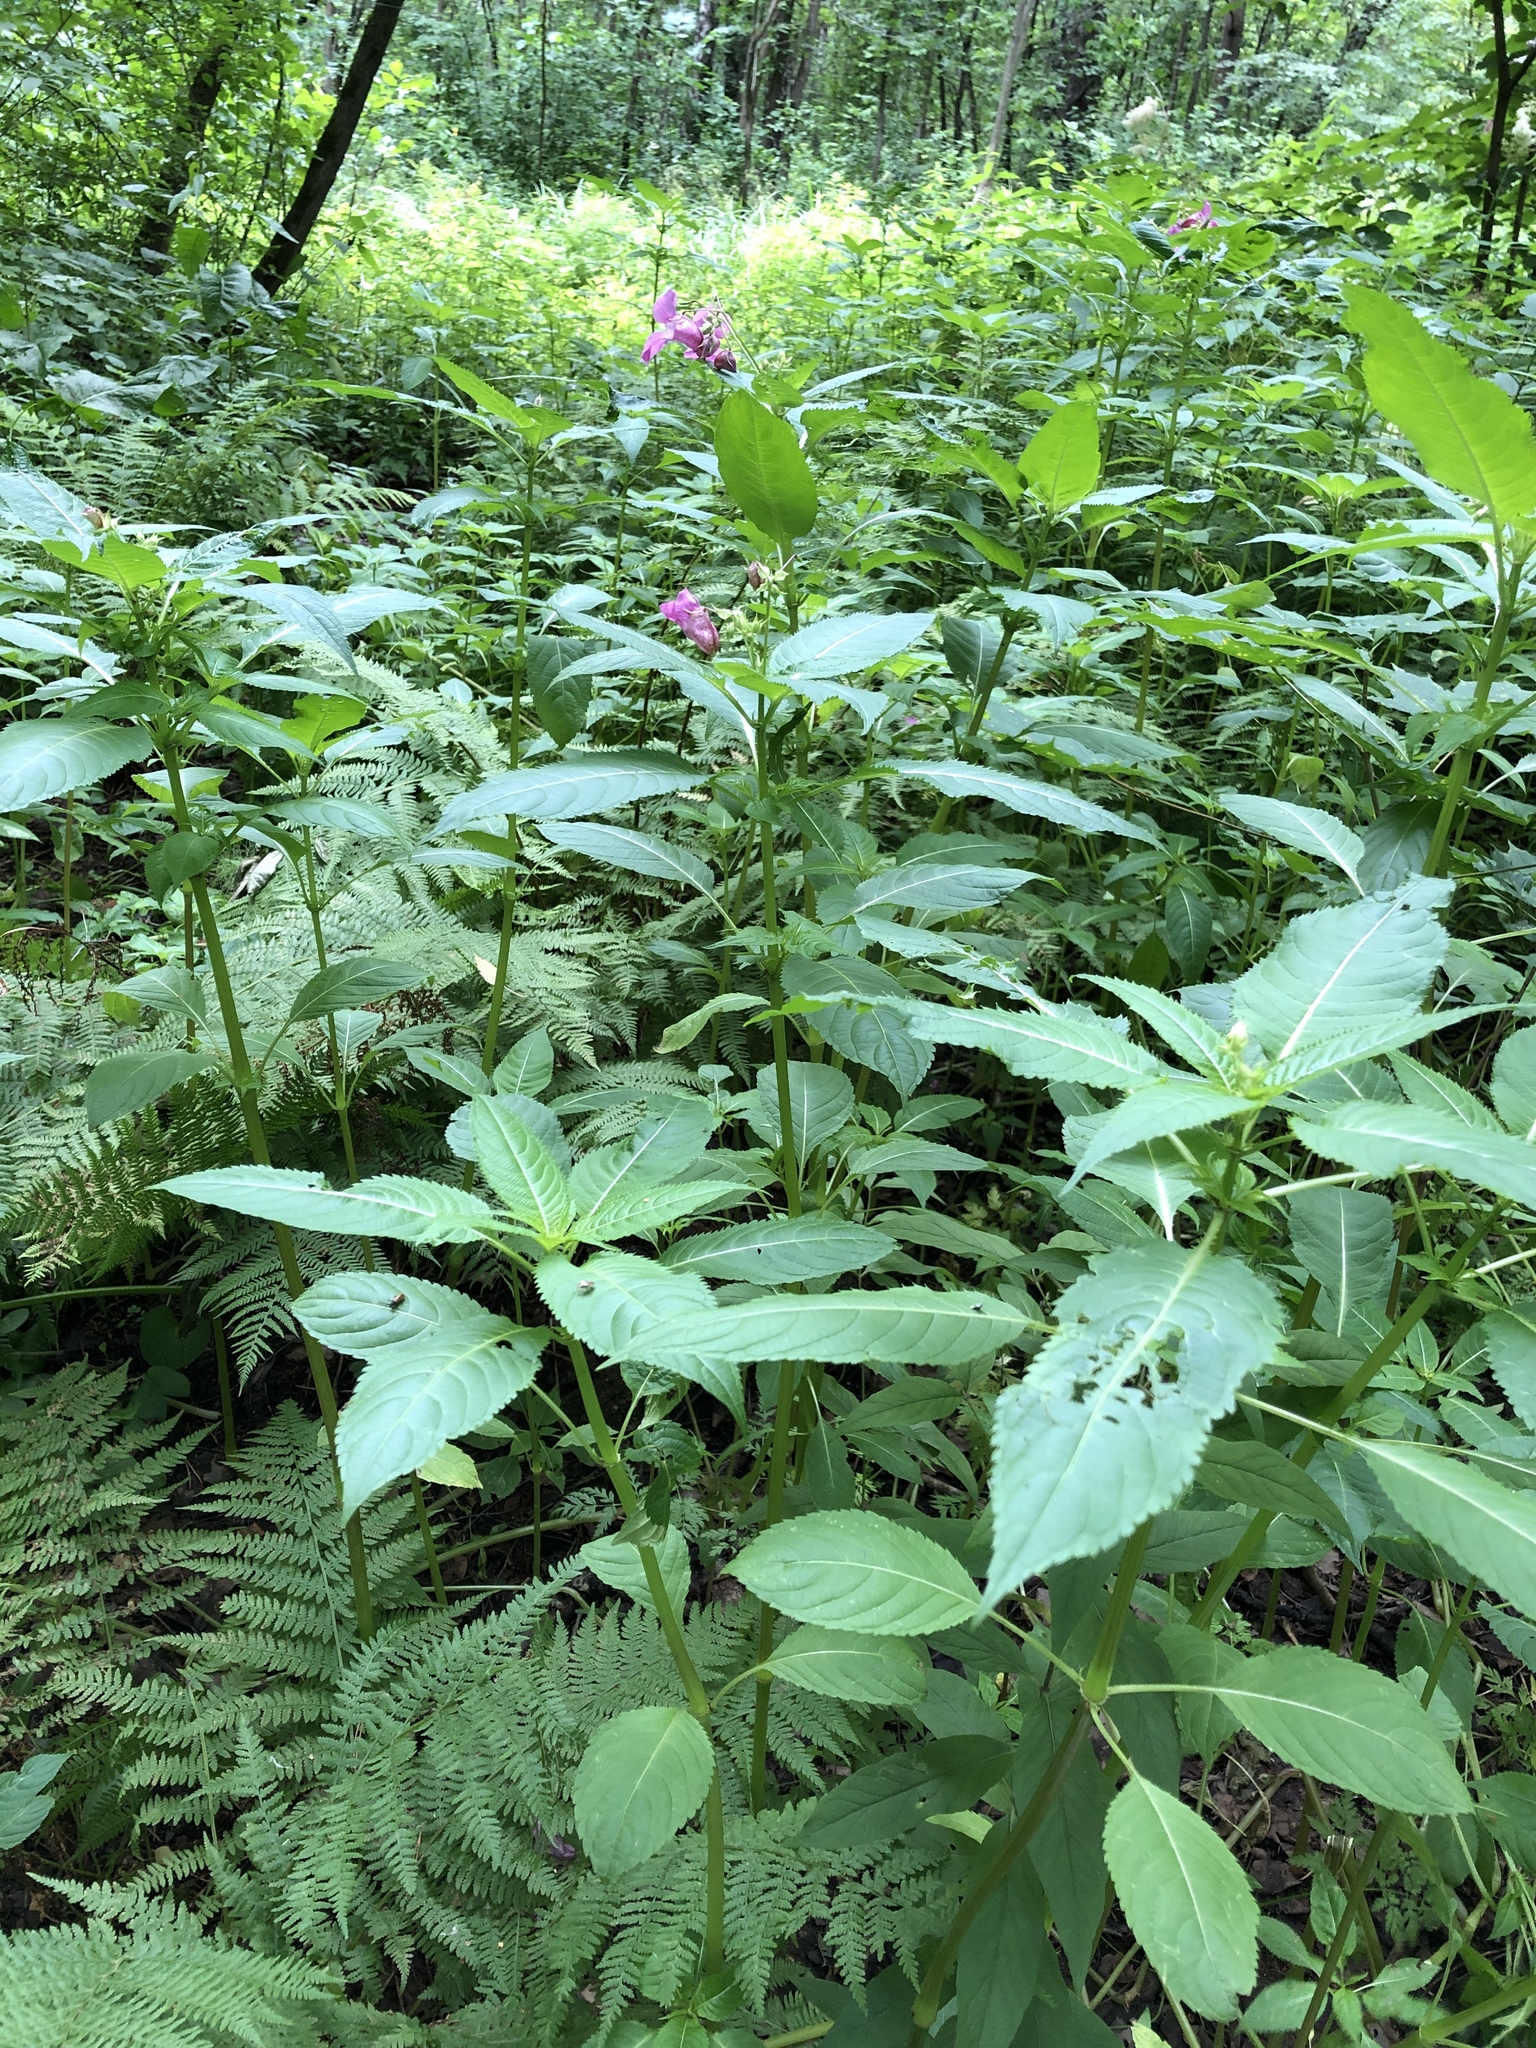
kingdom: Plantae
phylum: Tracheophyta
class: Magnoliopsida
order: Ericales
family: Balsaminaceae
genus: Impatiens
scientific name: Impatiens glandulifera
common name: Himalayan balsam
